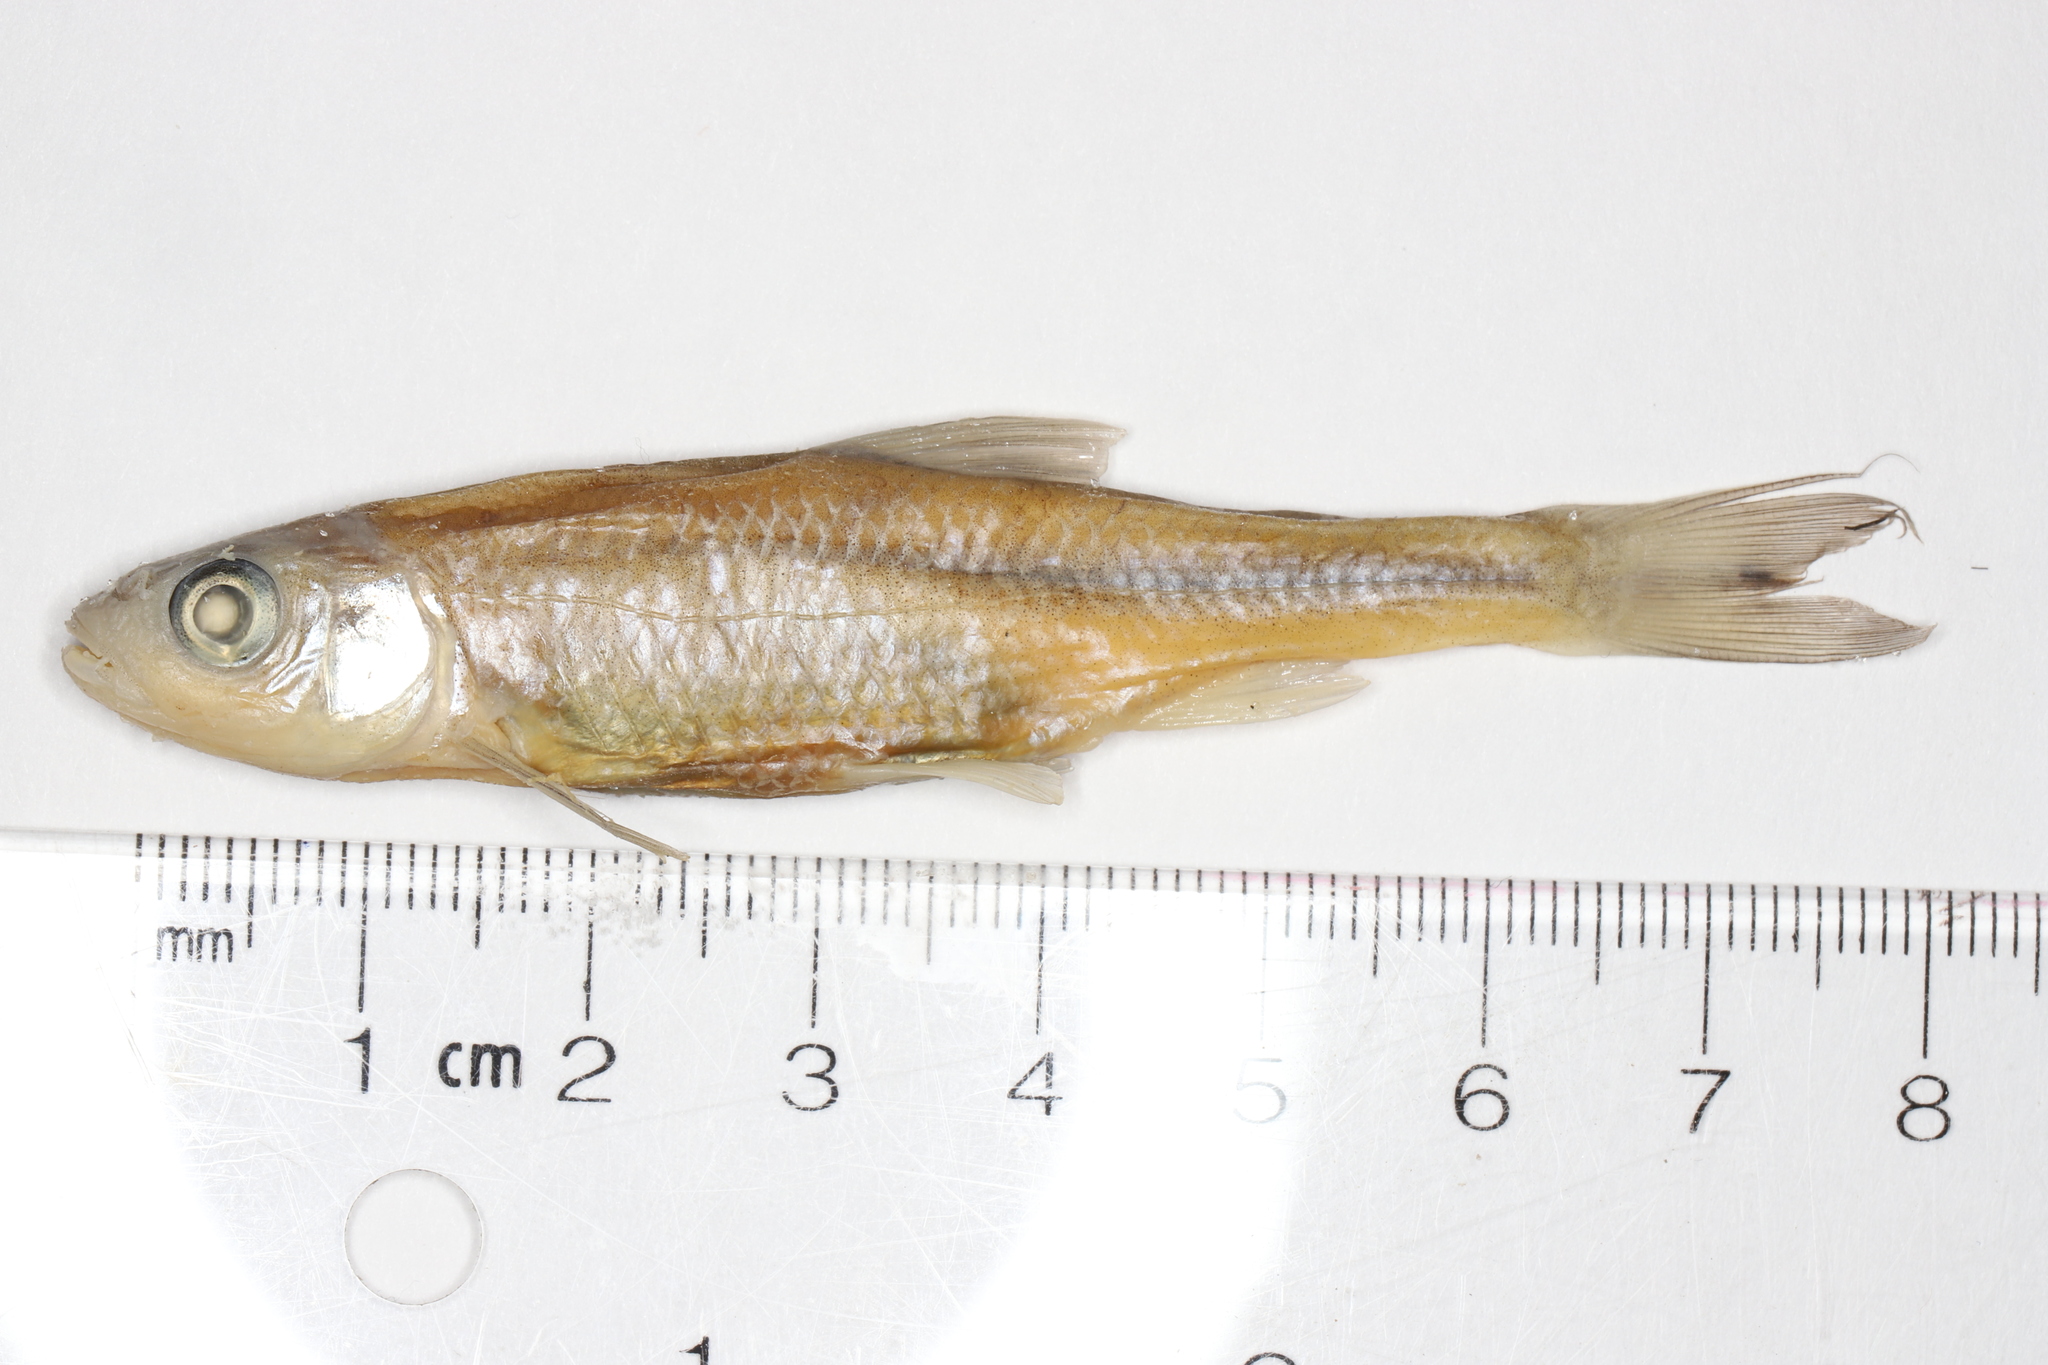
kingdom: Animalia
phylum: Chordata
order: Cypriniformes
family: Cyprinidae
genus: Luxilus
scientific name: Luxilus cornutus
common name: Common shiner
